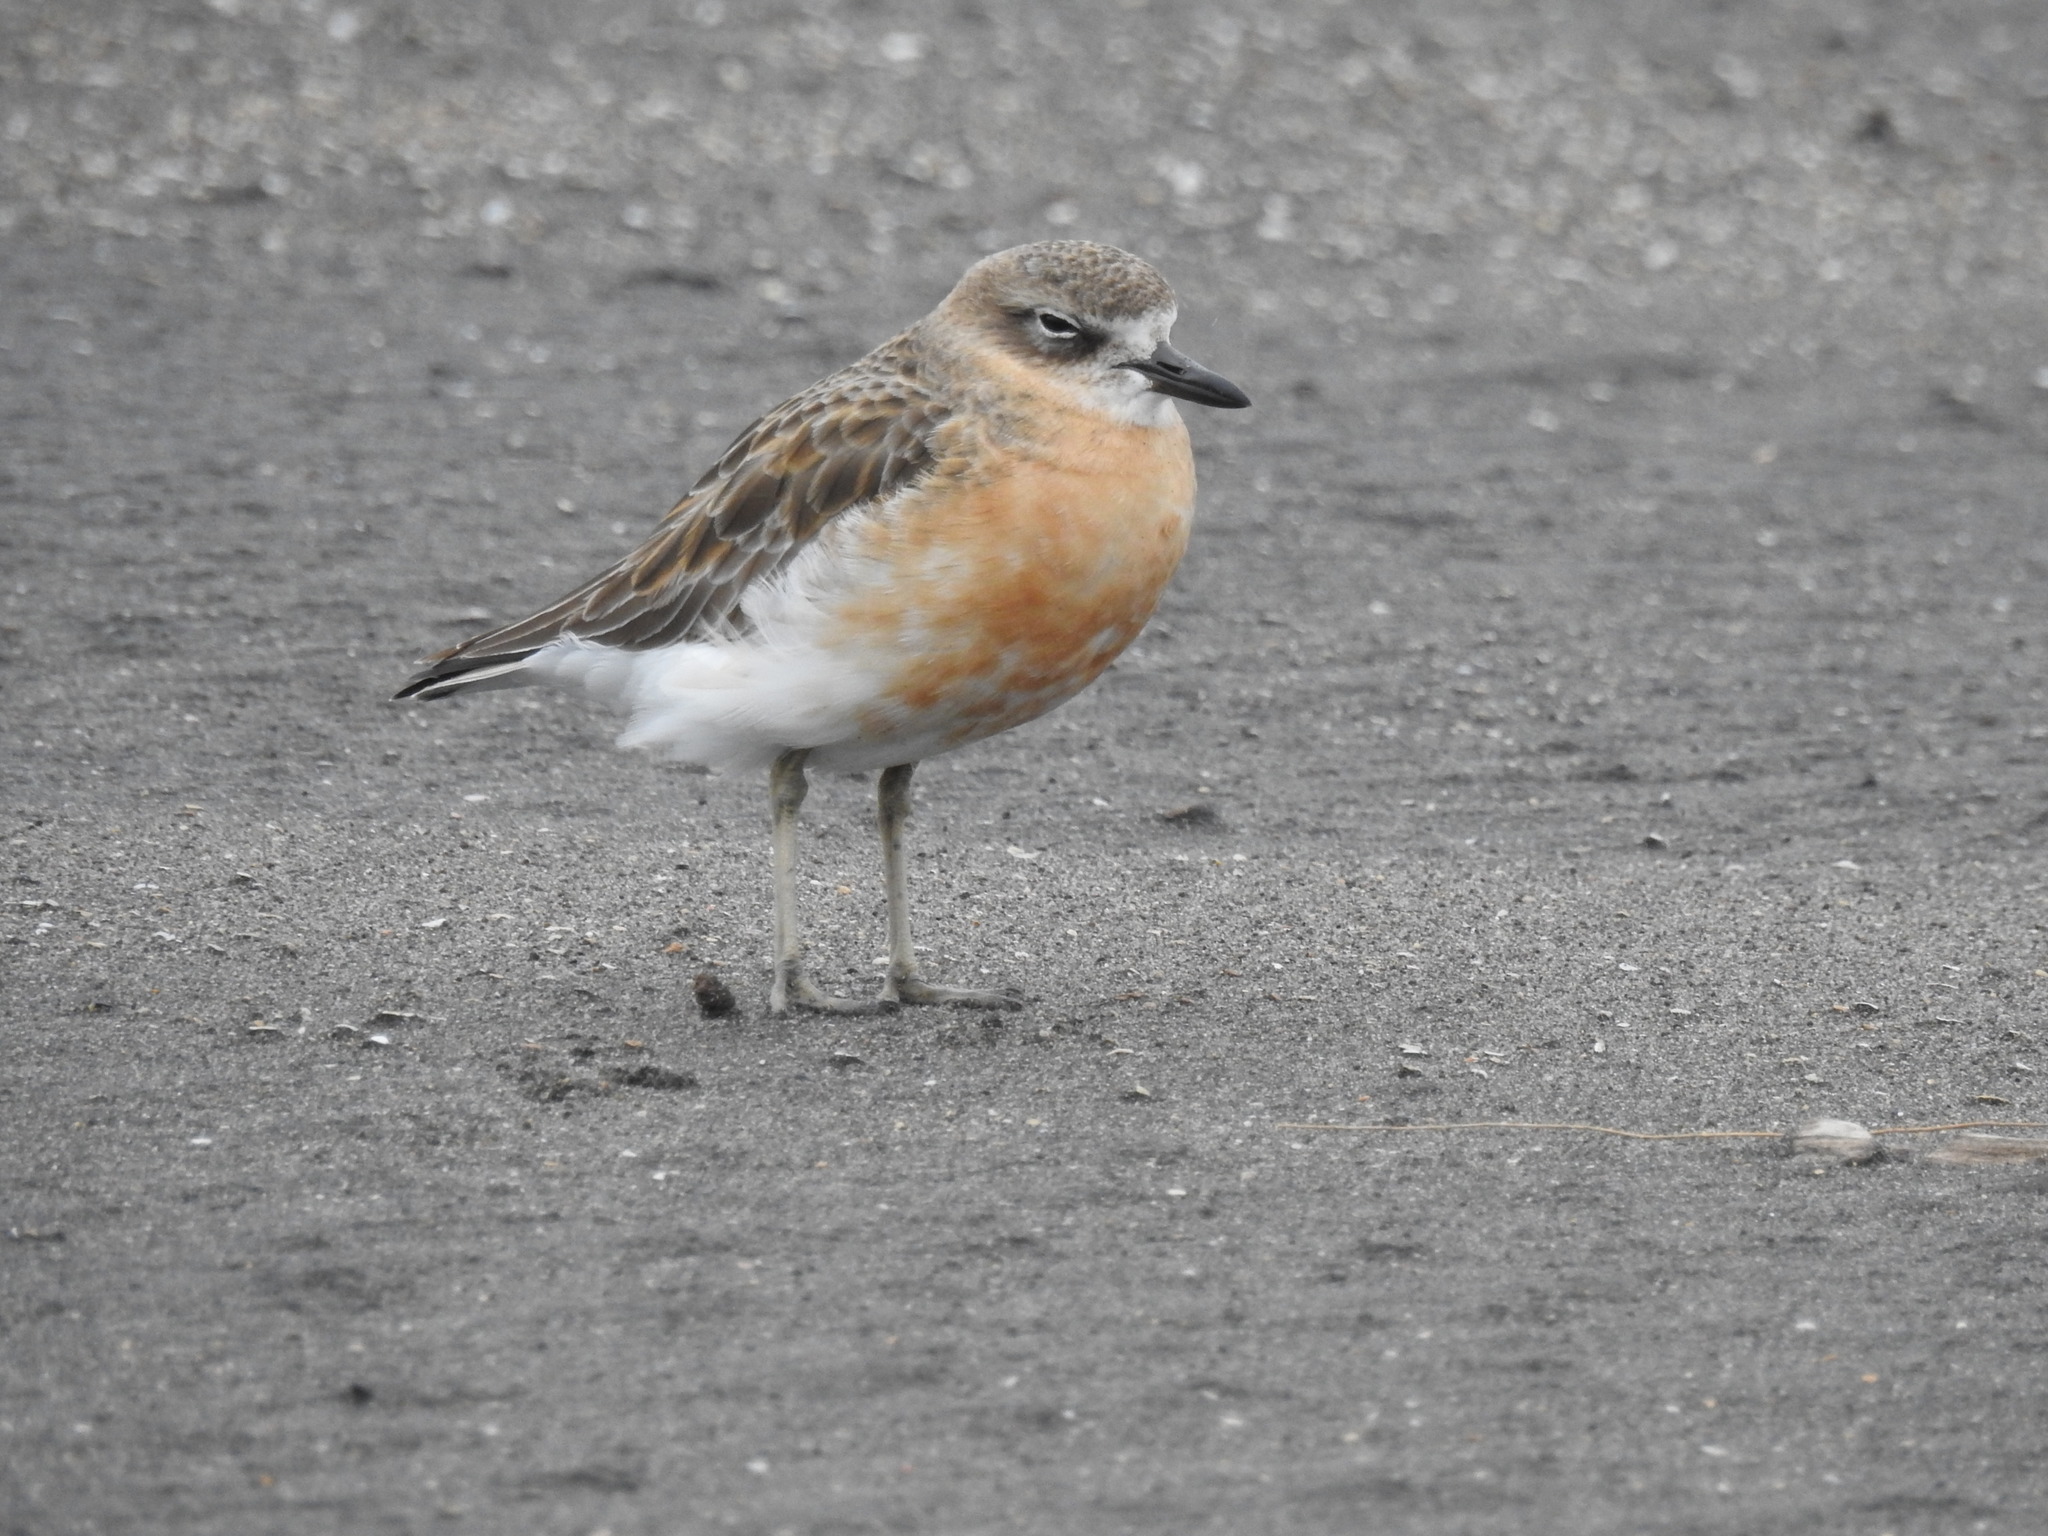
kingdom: Animalia
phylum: Chordata
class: Aves
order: Charadriiformes
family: Charadriidae
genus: Anarhynchus
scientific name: Anarhynchus
